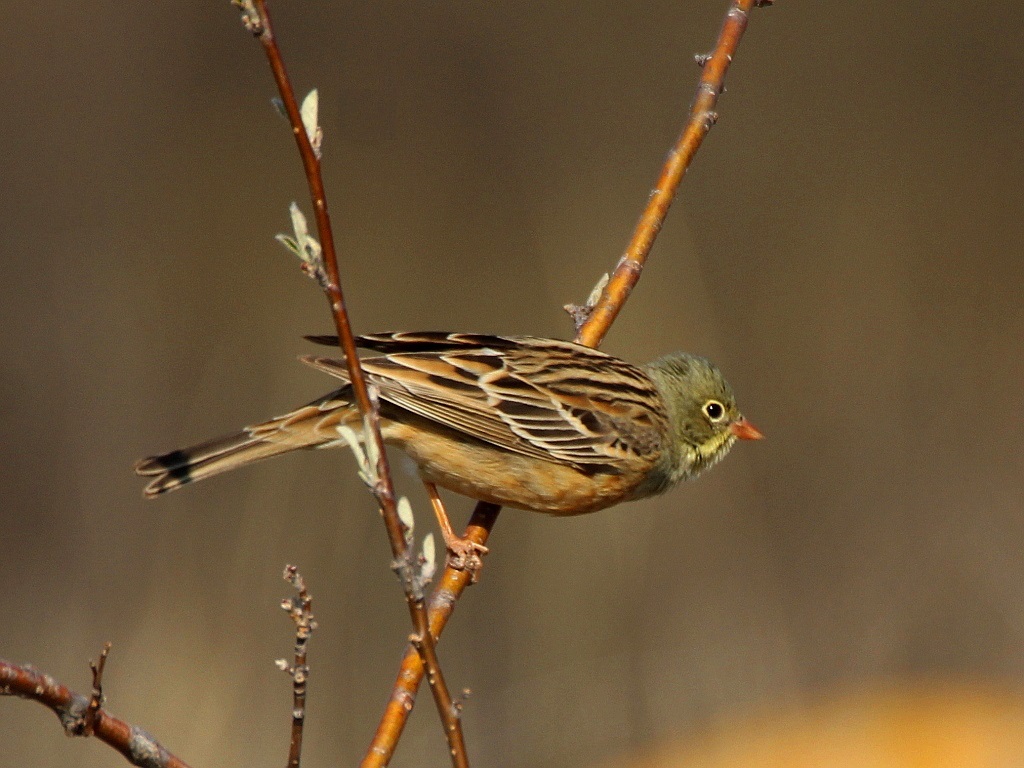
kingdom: Animalia
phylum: Chordata
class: Aves
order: Passeriformes
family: Emberizidae
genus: Emberiza
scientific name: Emberiza hortulana
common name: Ortolan bunting
